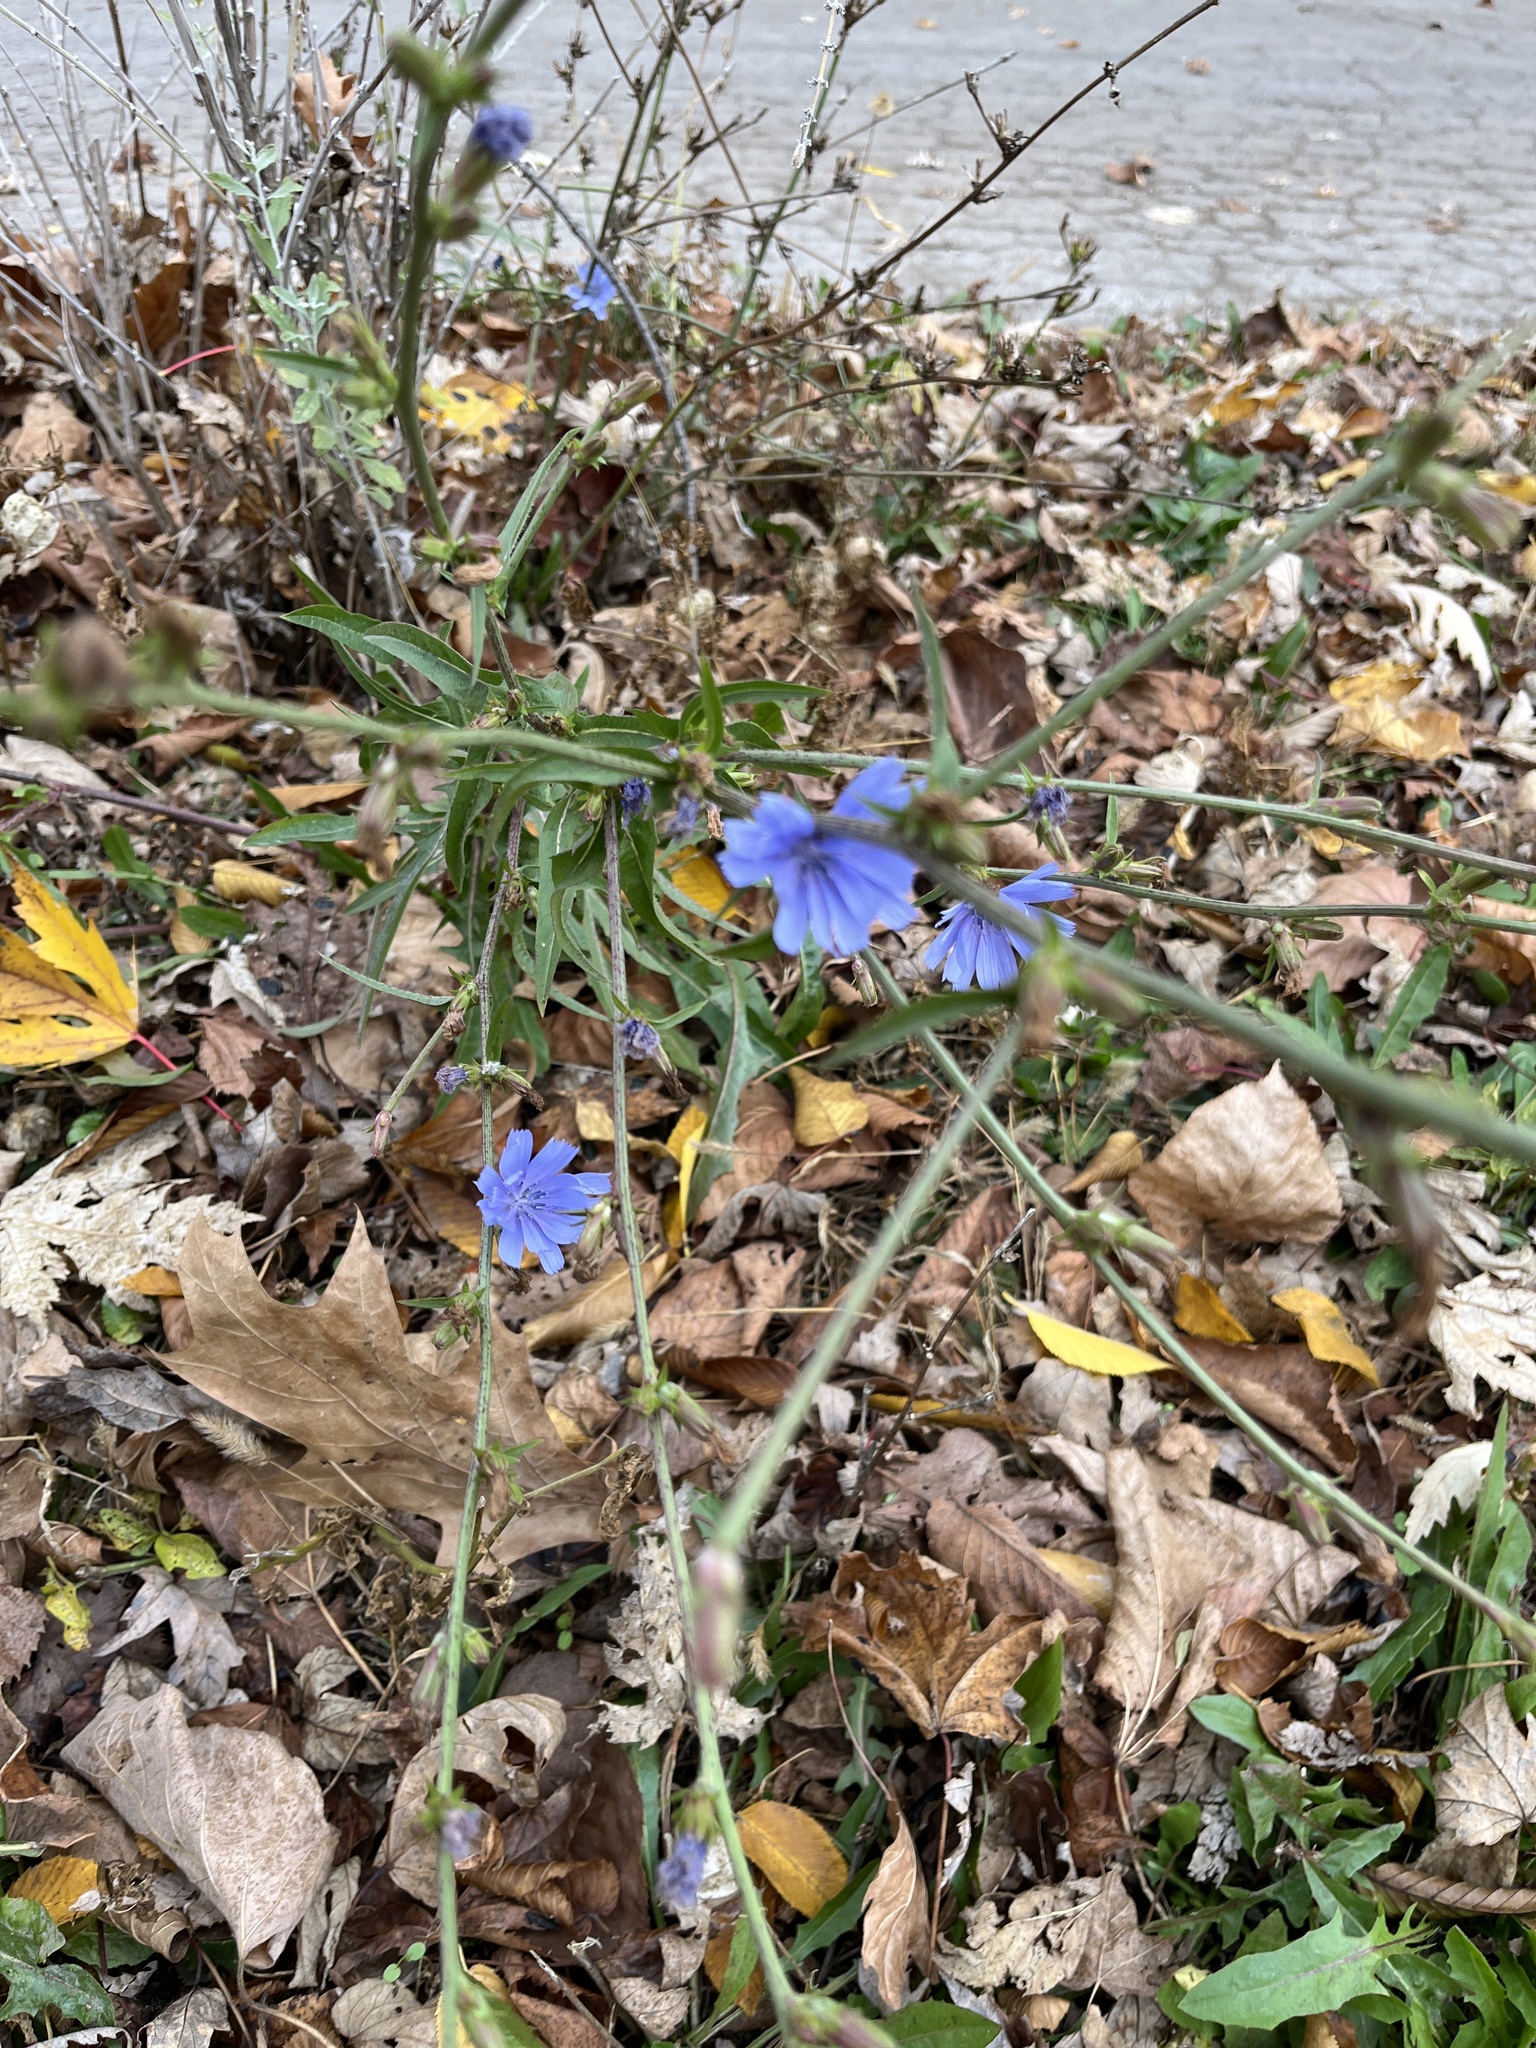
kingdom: Plantae
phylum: Tracheophyta
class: Magnoliopsida
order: Asterales
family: Asteraceae
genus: Cichorium
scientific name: Cichorium intybus
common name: Chicory
